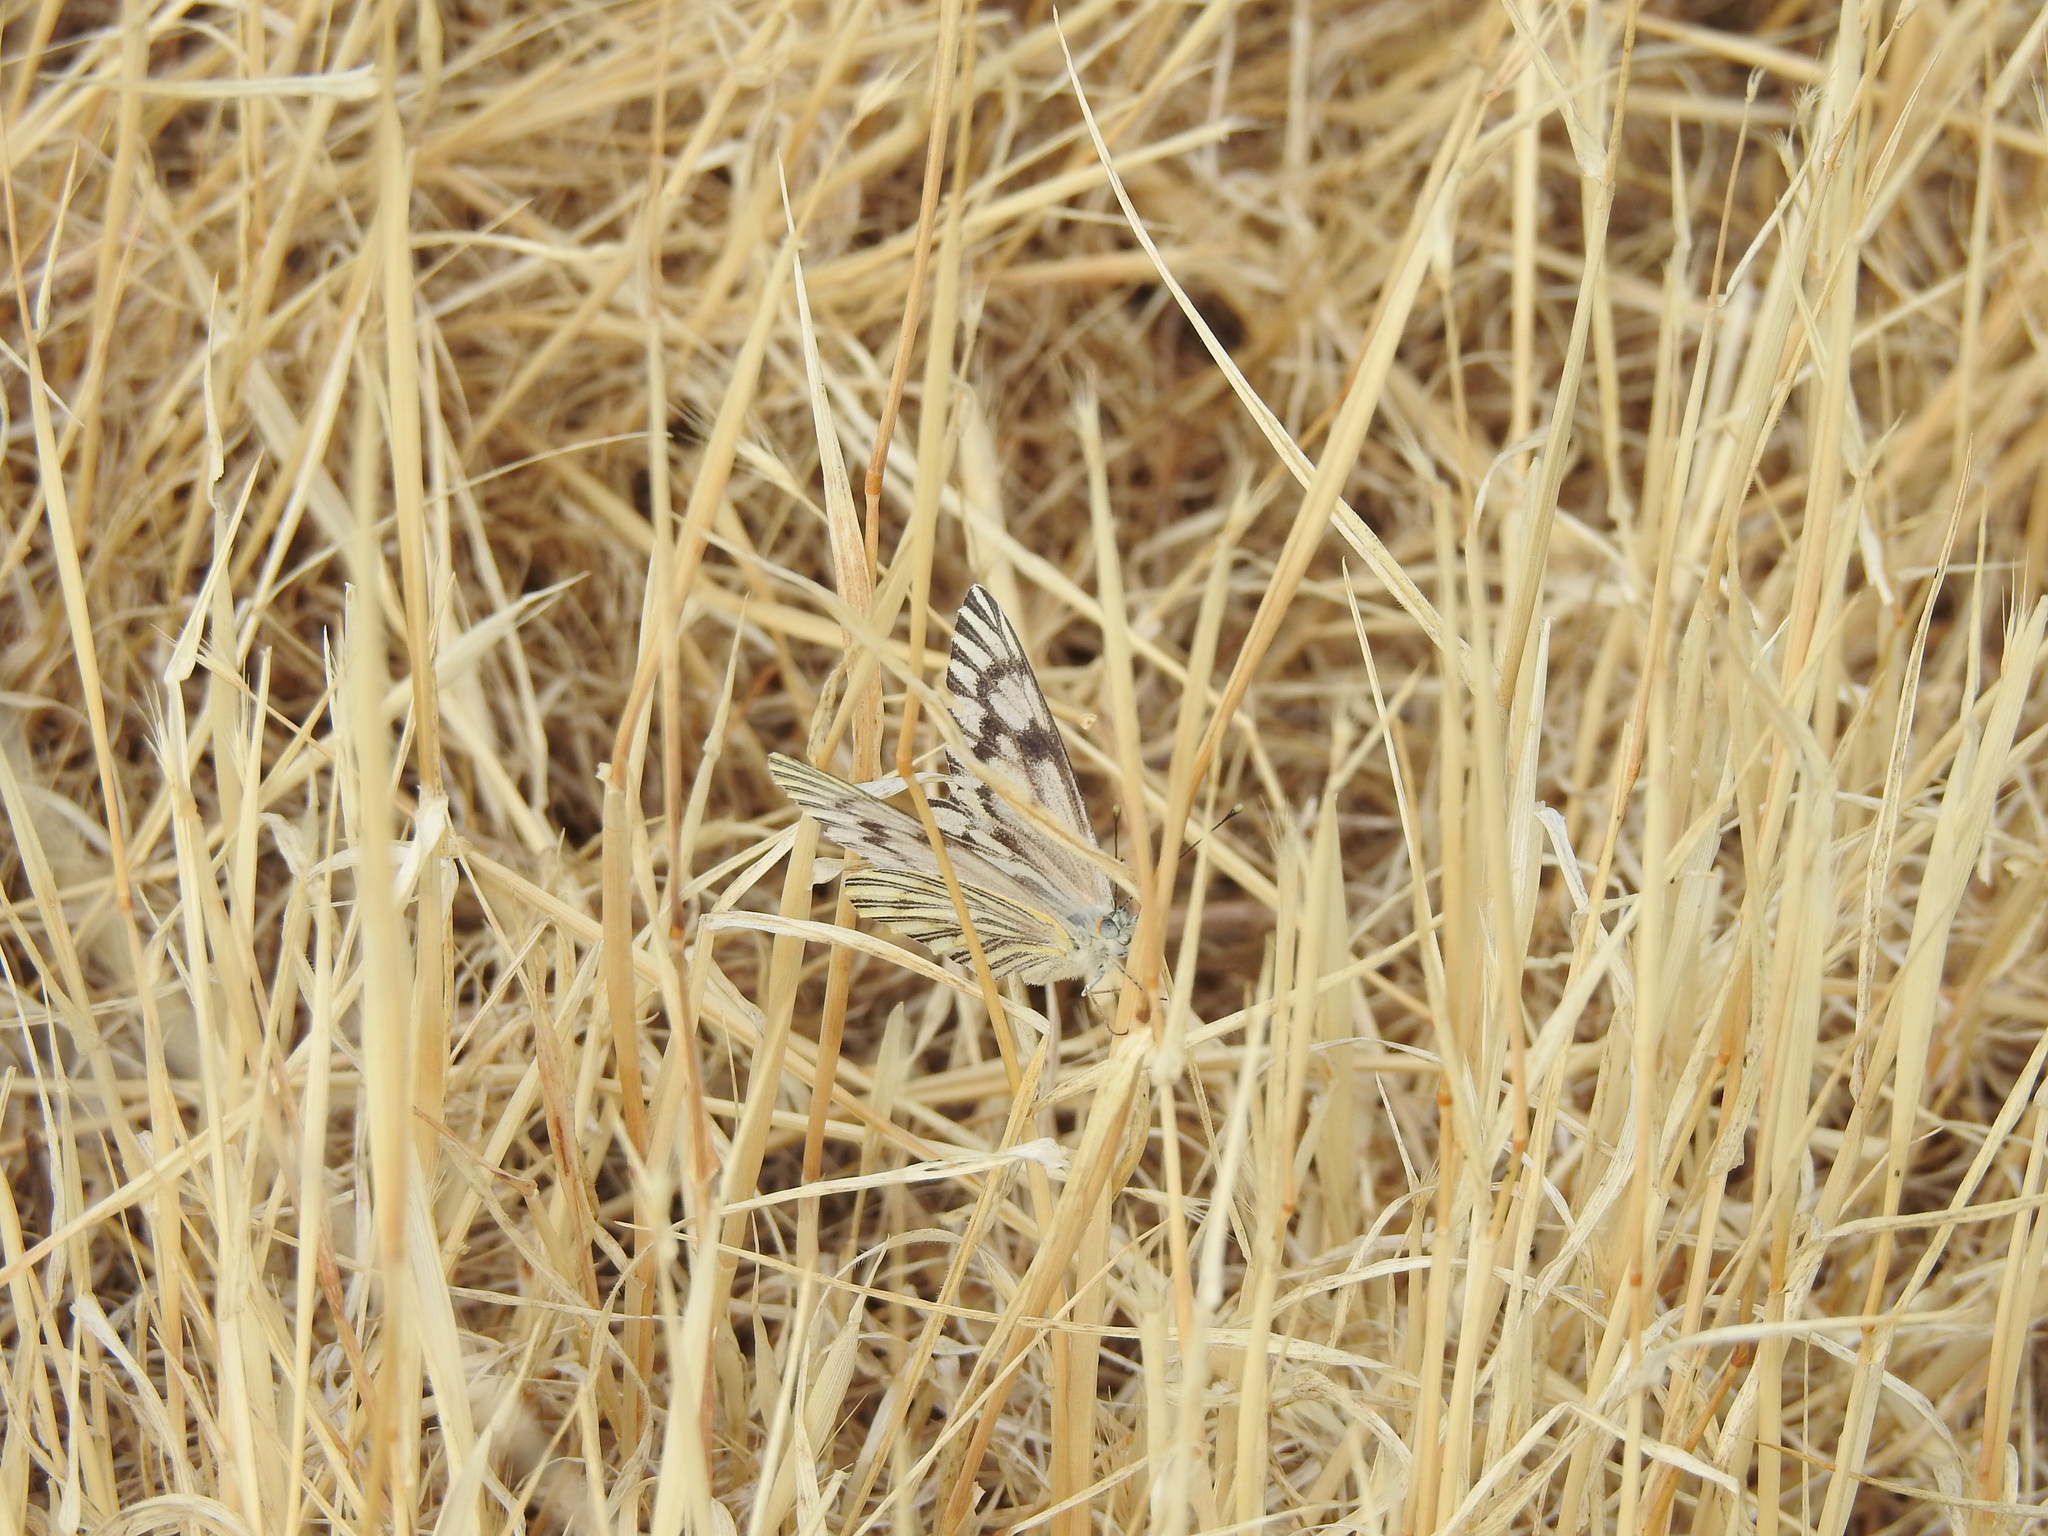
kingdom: Animalia
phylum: Arthropoda
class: Insecta
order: Lepidoptera
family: Pieridae
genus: Tatochila
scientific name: Tatochila mercedis
